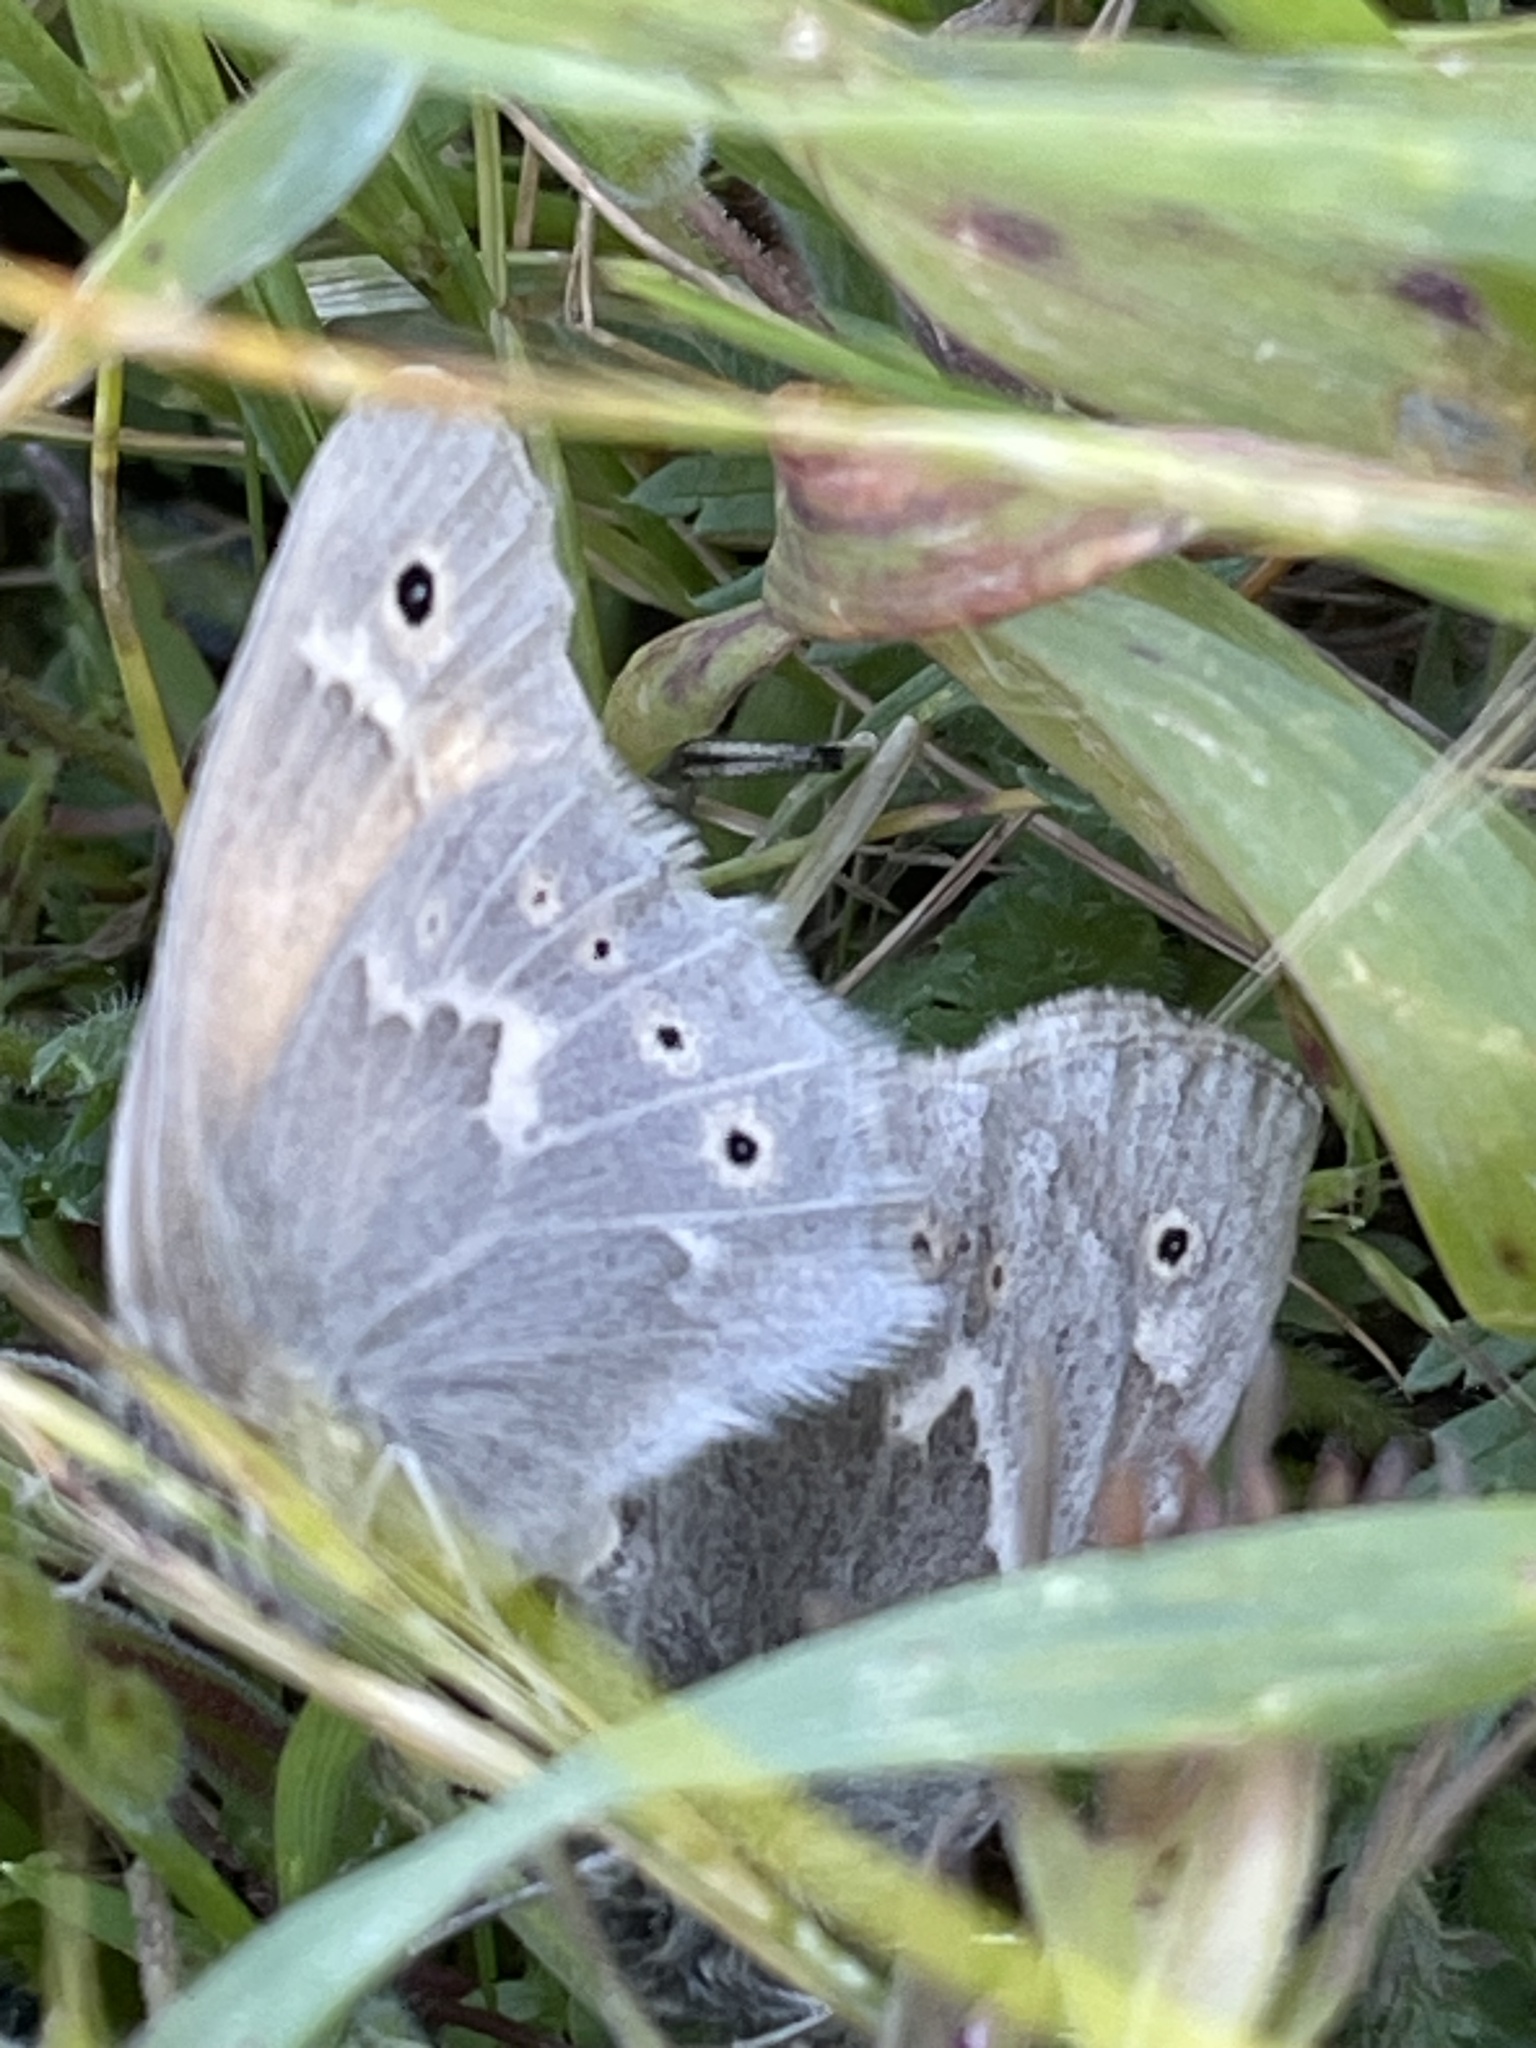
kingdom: Animalia
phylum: Arthropoda
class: Insecta
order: Lepidoptera
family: Nymphalidae
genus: Coenonympha
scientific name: Coenonympha california
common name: Common ringlet
